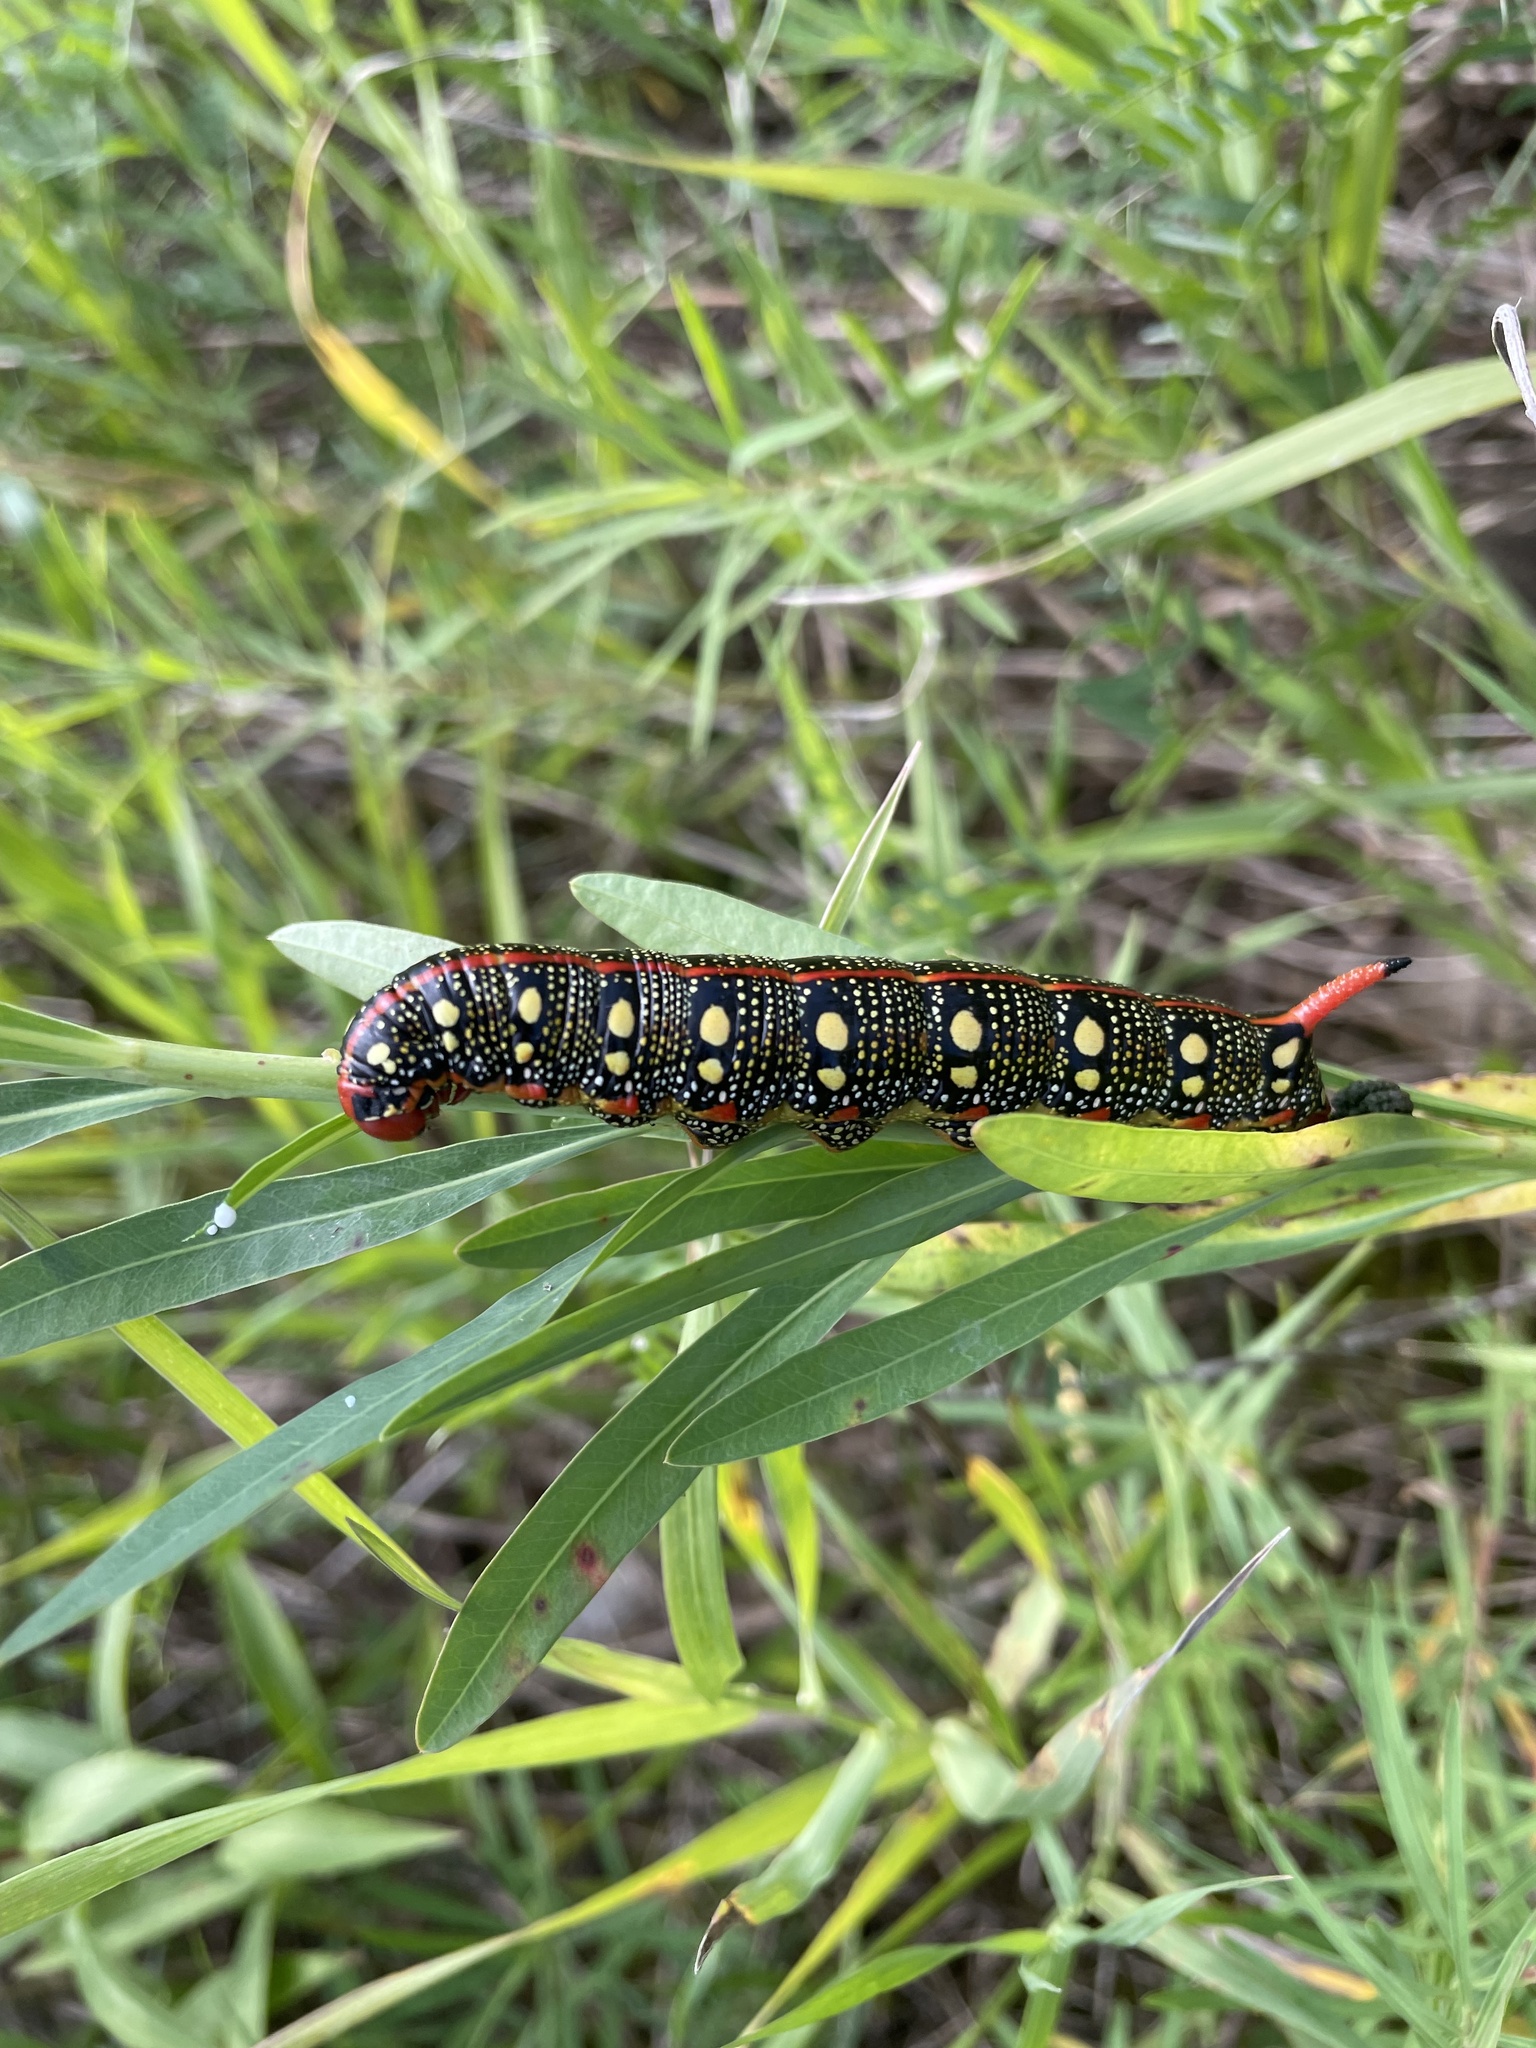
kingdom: Animalia
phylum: Arthropoda
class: Insecta
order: Lepidoptera
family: Sphingidae
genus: Hyles
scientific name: Hyles euphorbiae
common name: Spurge hawk-moth
